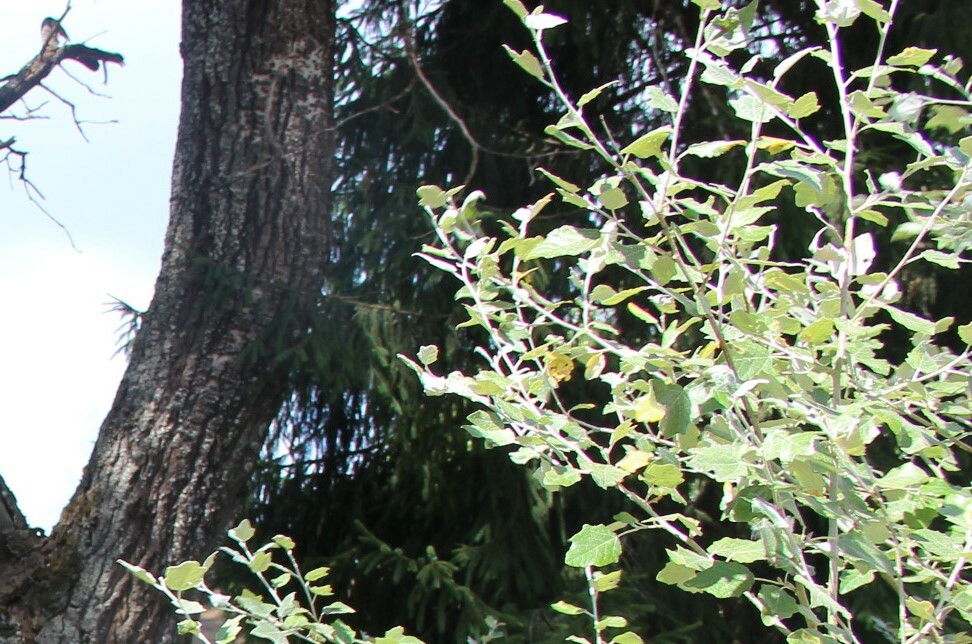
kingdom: Plantae
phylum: Tracheophyta
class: Magnoliopsida
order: Malpighiales
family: Salicaceae
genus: Populus
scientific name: Populus alba
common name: White poplar
